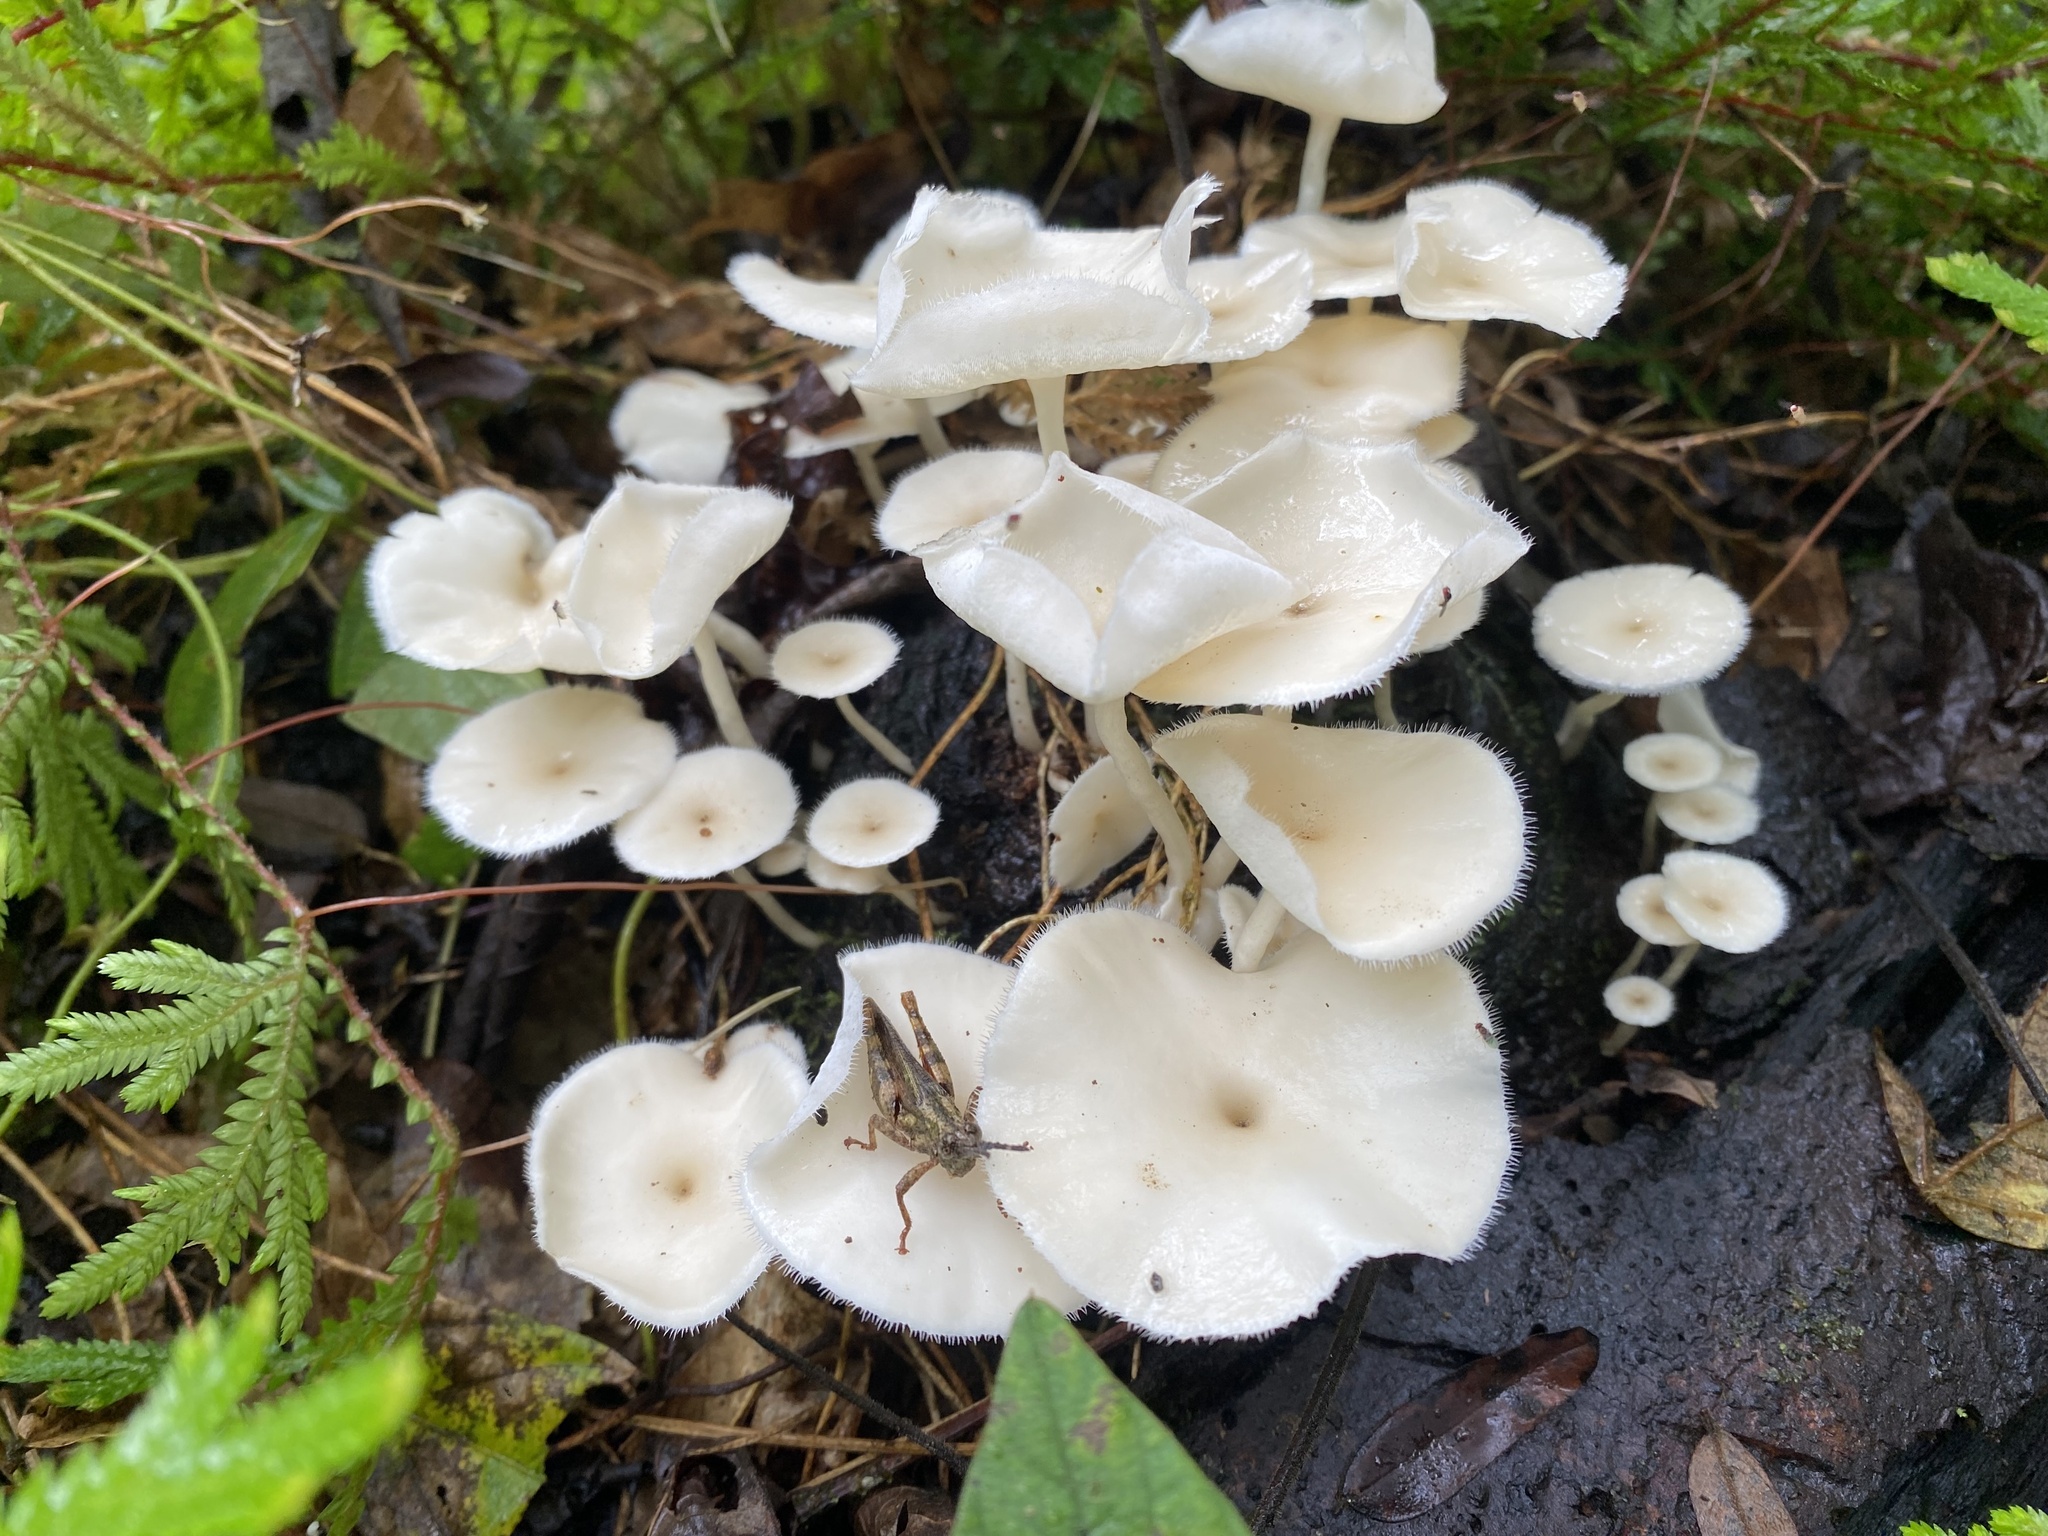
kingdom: Fungi
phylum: Basidiomycota
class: Agaricomycetes
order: Polyporales
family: Polyporaceae
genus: Lentinus
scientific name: Lentinus flexipes
